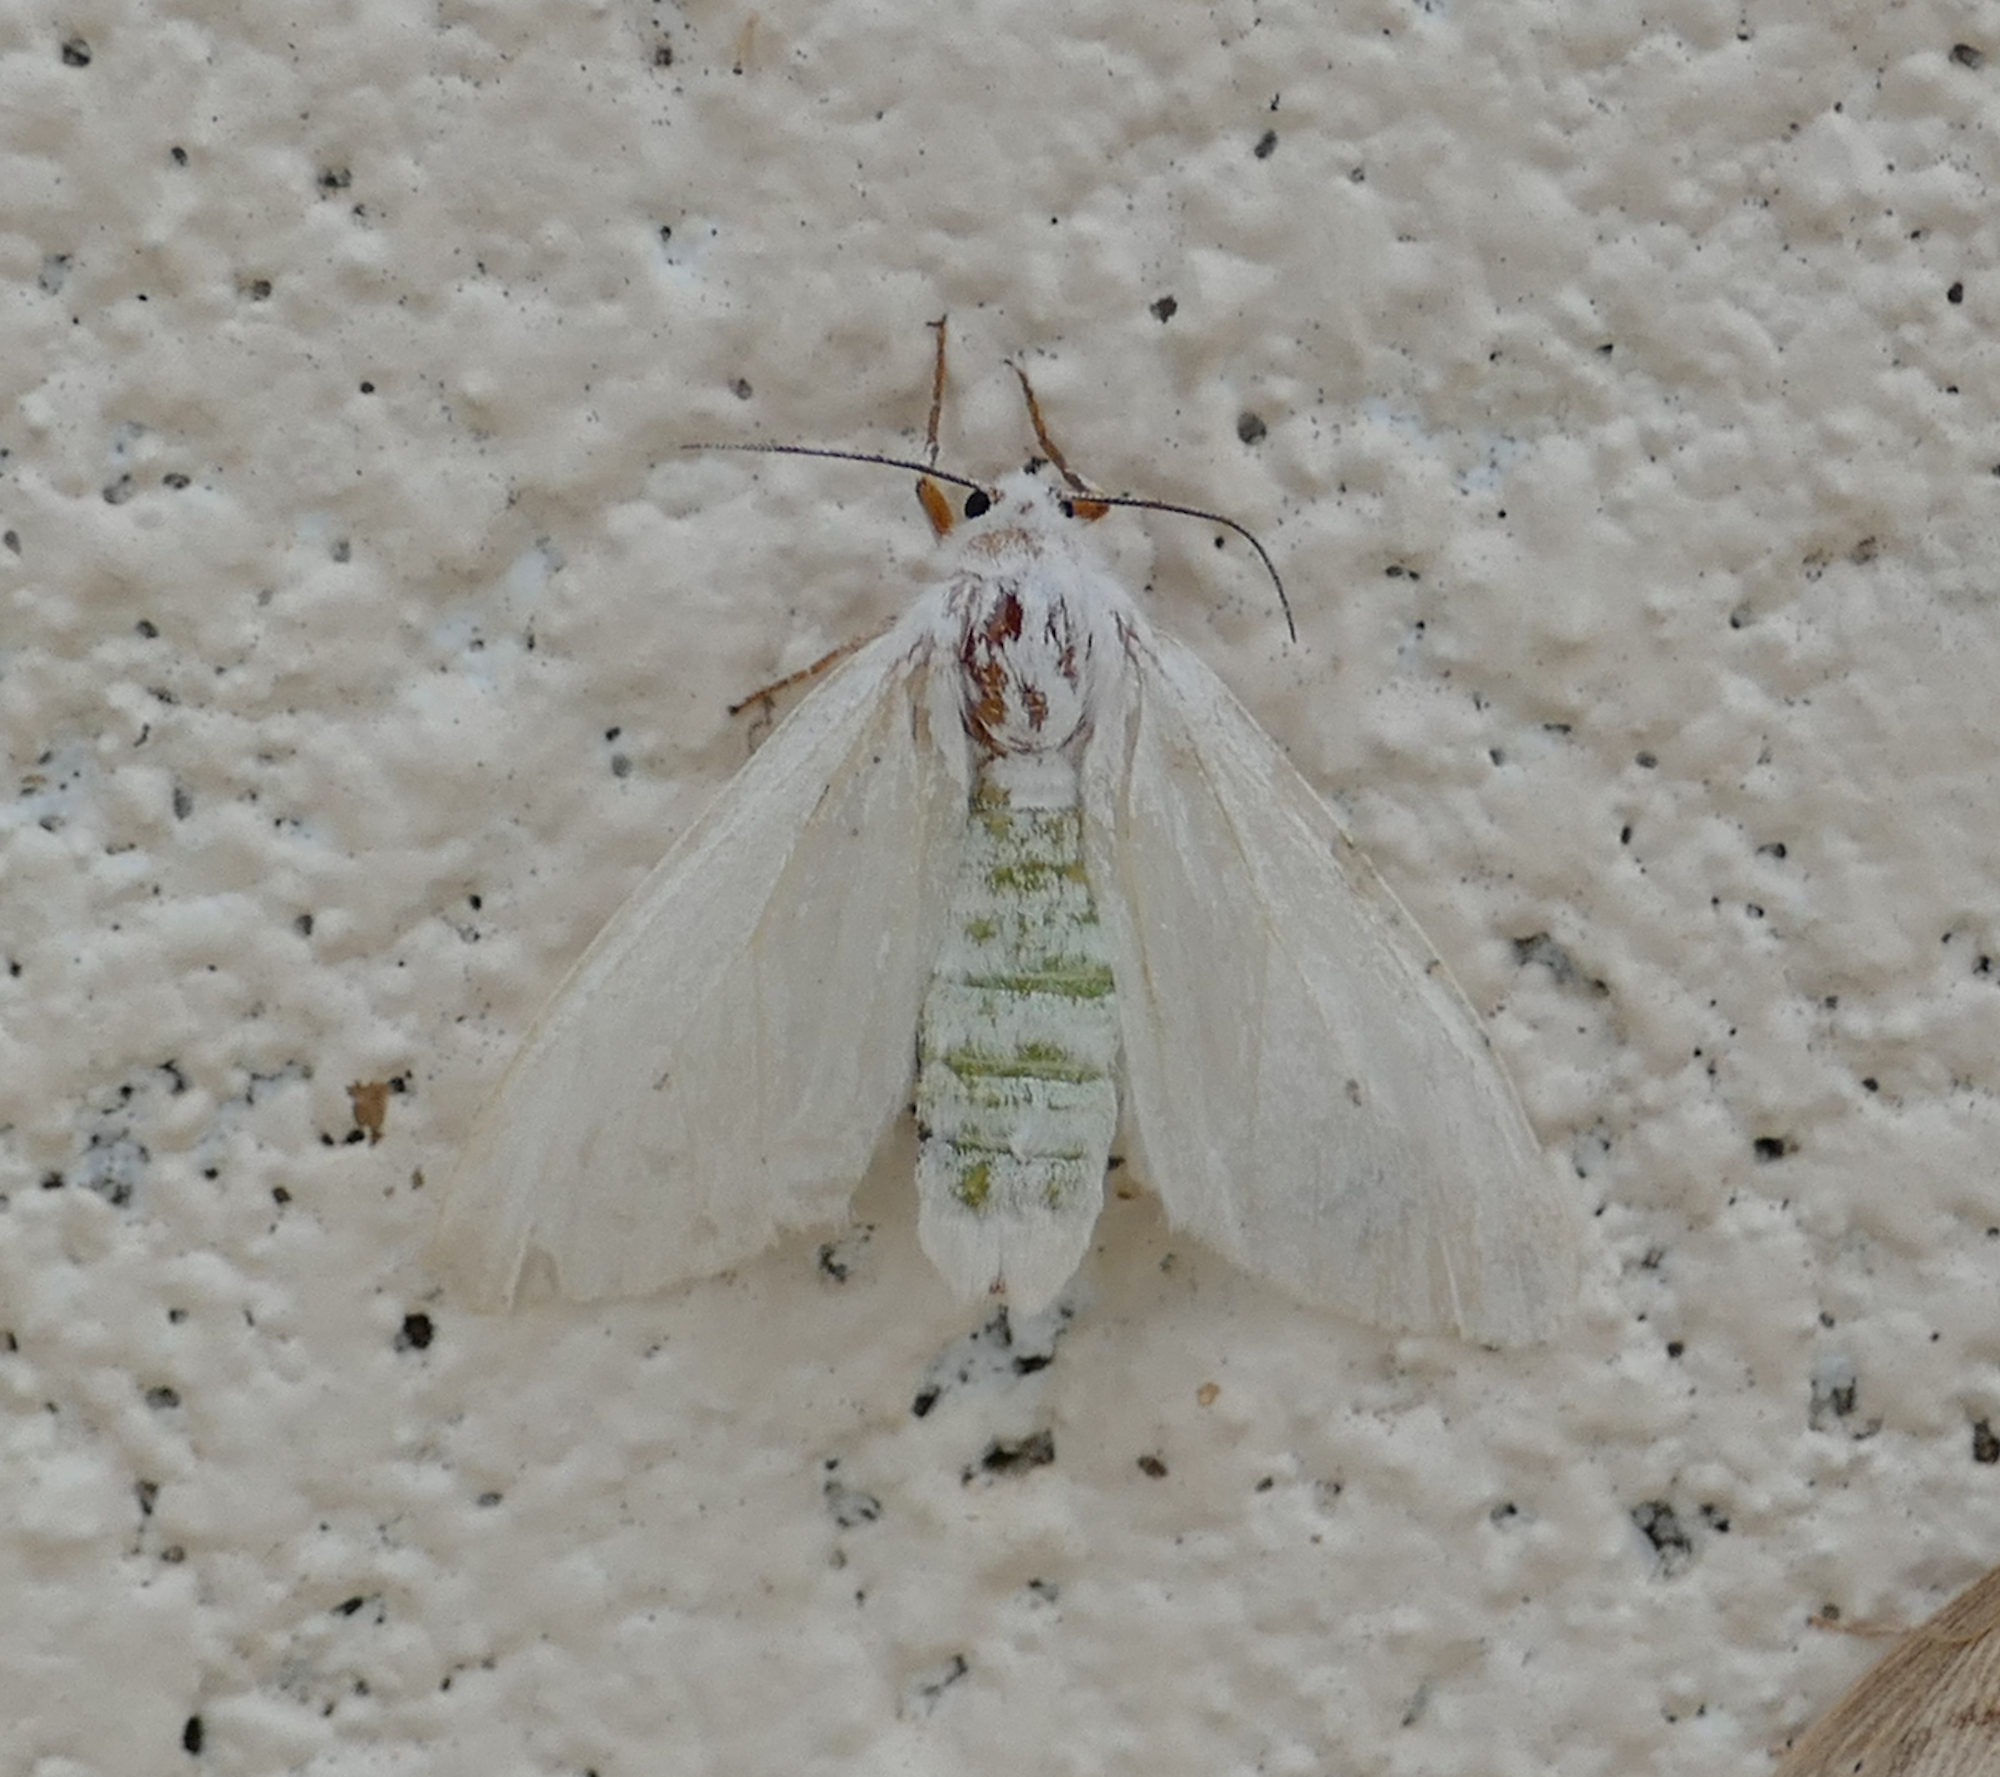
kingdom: Animalia
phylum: Arthropoda
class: Insecta
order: Lepidoptera
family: Erebidae
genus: Hyphantria
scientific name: Hyphantria cunea
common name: American white moth
